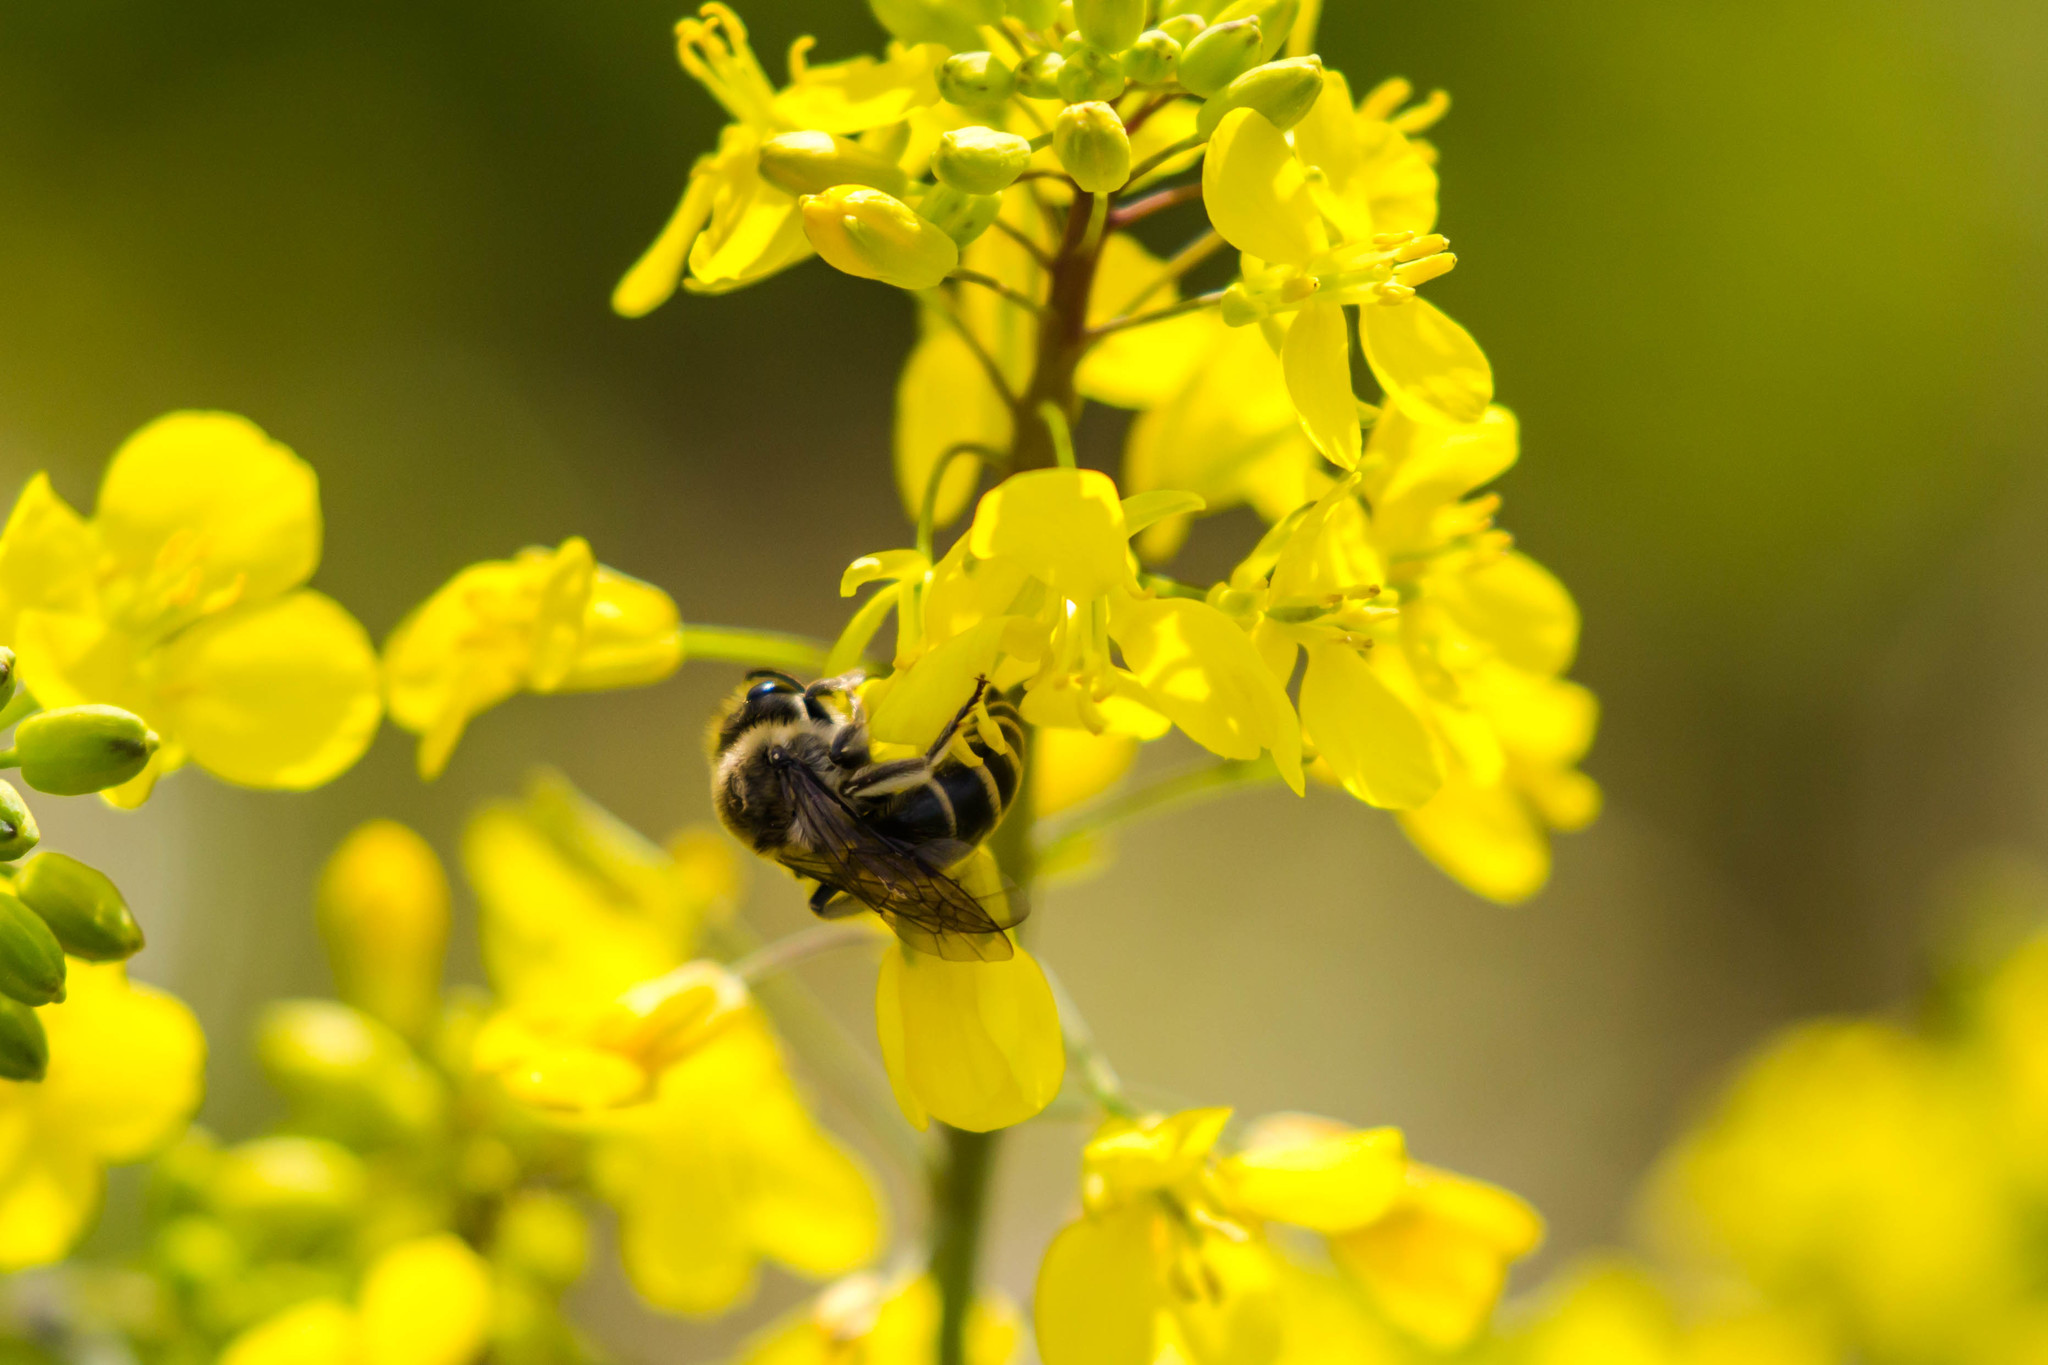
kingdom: Animalia
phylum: Arthropoda
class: Insecta
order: Hymenoptera
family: Colletidae
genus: Colletes
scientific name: Colletes inaequalis
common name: Unequal cellophane bee
